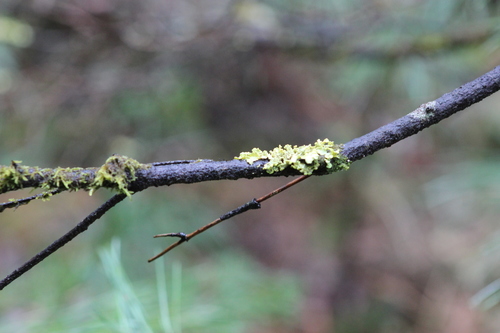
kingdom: Fungi
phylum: Ascomycota
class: Lecanoromycetes
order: Lecanorales
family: Parmeliaceae
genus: Vulpicida
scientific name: Vulpicida pinastri
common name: Powdered sunshine lichen
